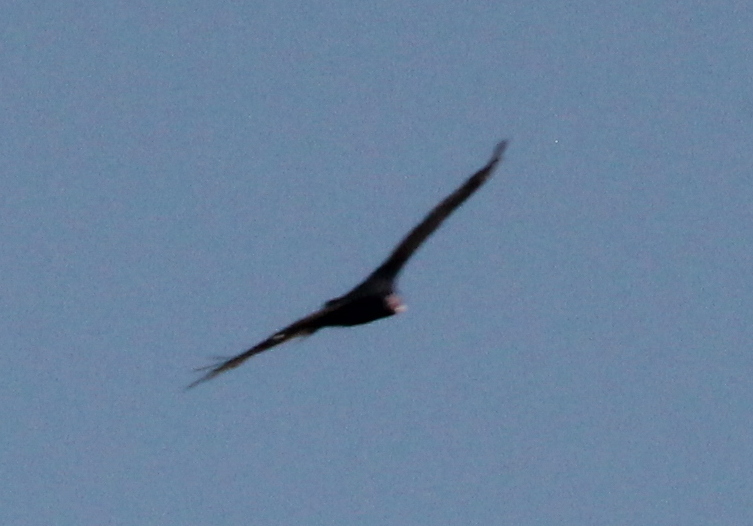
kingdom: Animalia
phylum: Chordata
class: Aves
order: Accipitriformes
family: Cathartidae
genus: Cathartes
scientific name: Cathartes aura
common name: Turkey vulture
